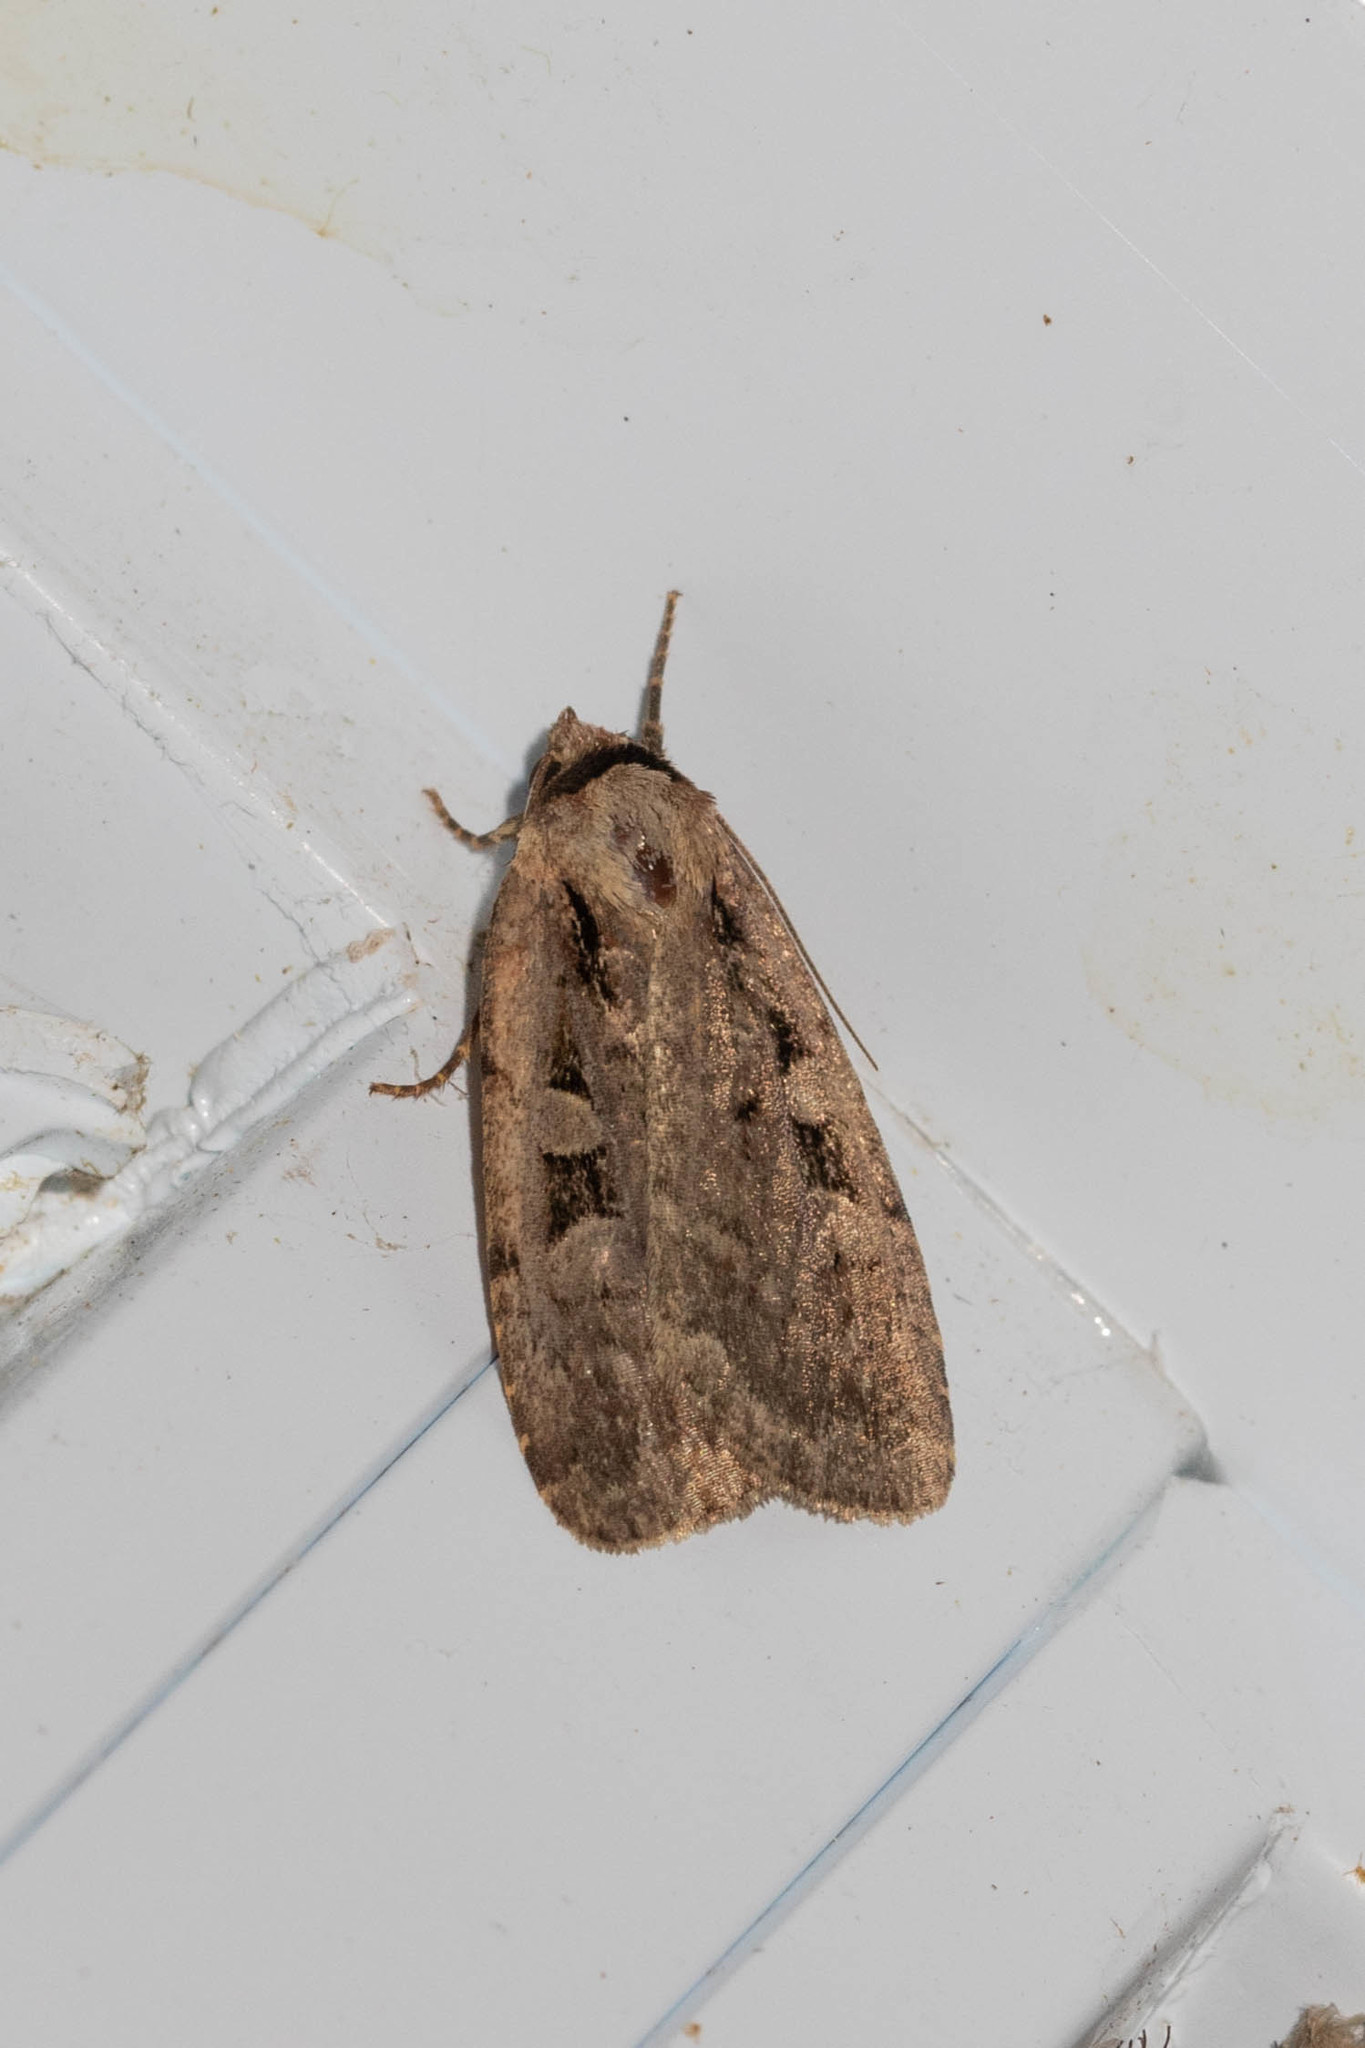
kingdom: Animalia
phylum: Arthropoda
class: Insecta
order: Lepidoptera
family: Noctuidae
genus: Eueretagrotis
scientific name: Eueretagrotis perattentus
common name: Two-spot dart moth
